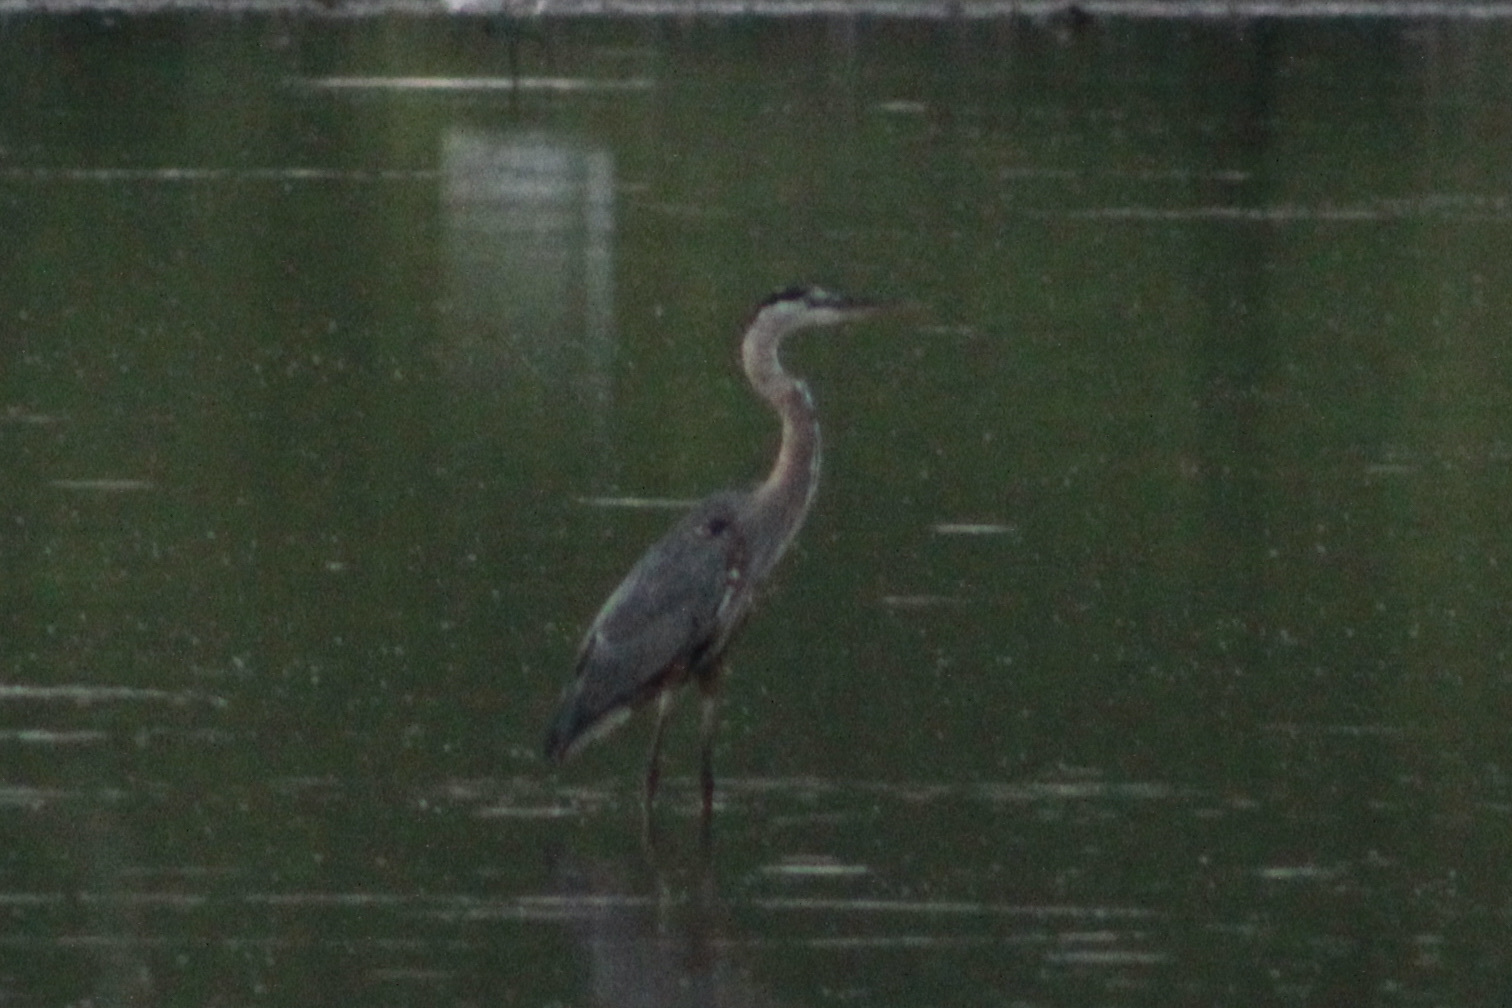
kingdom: Animalia
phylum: Chordata
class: Aves
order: Pelecaniformes
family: Ardeidae
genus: Ardea
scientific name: Ardea herodias
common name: Great blue heron
